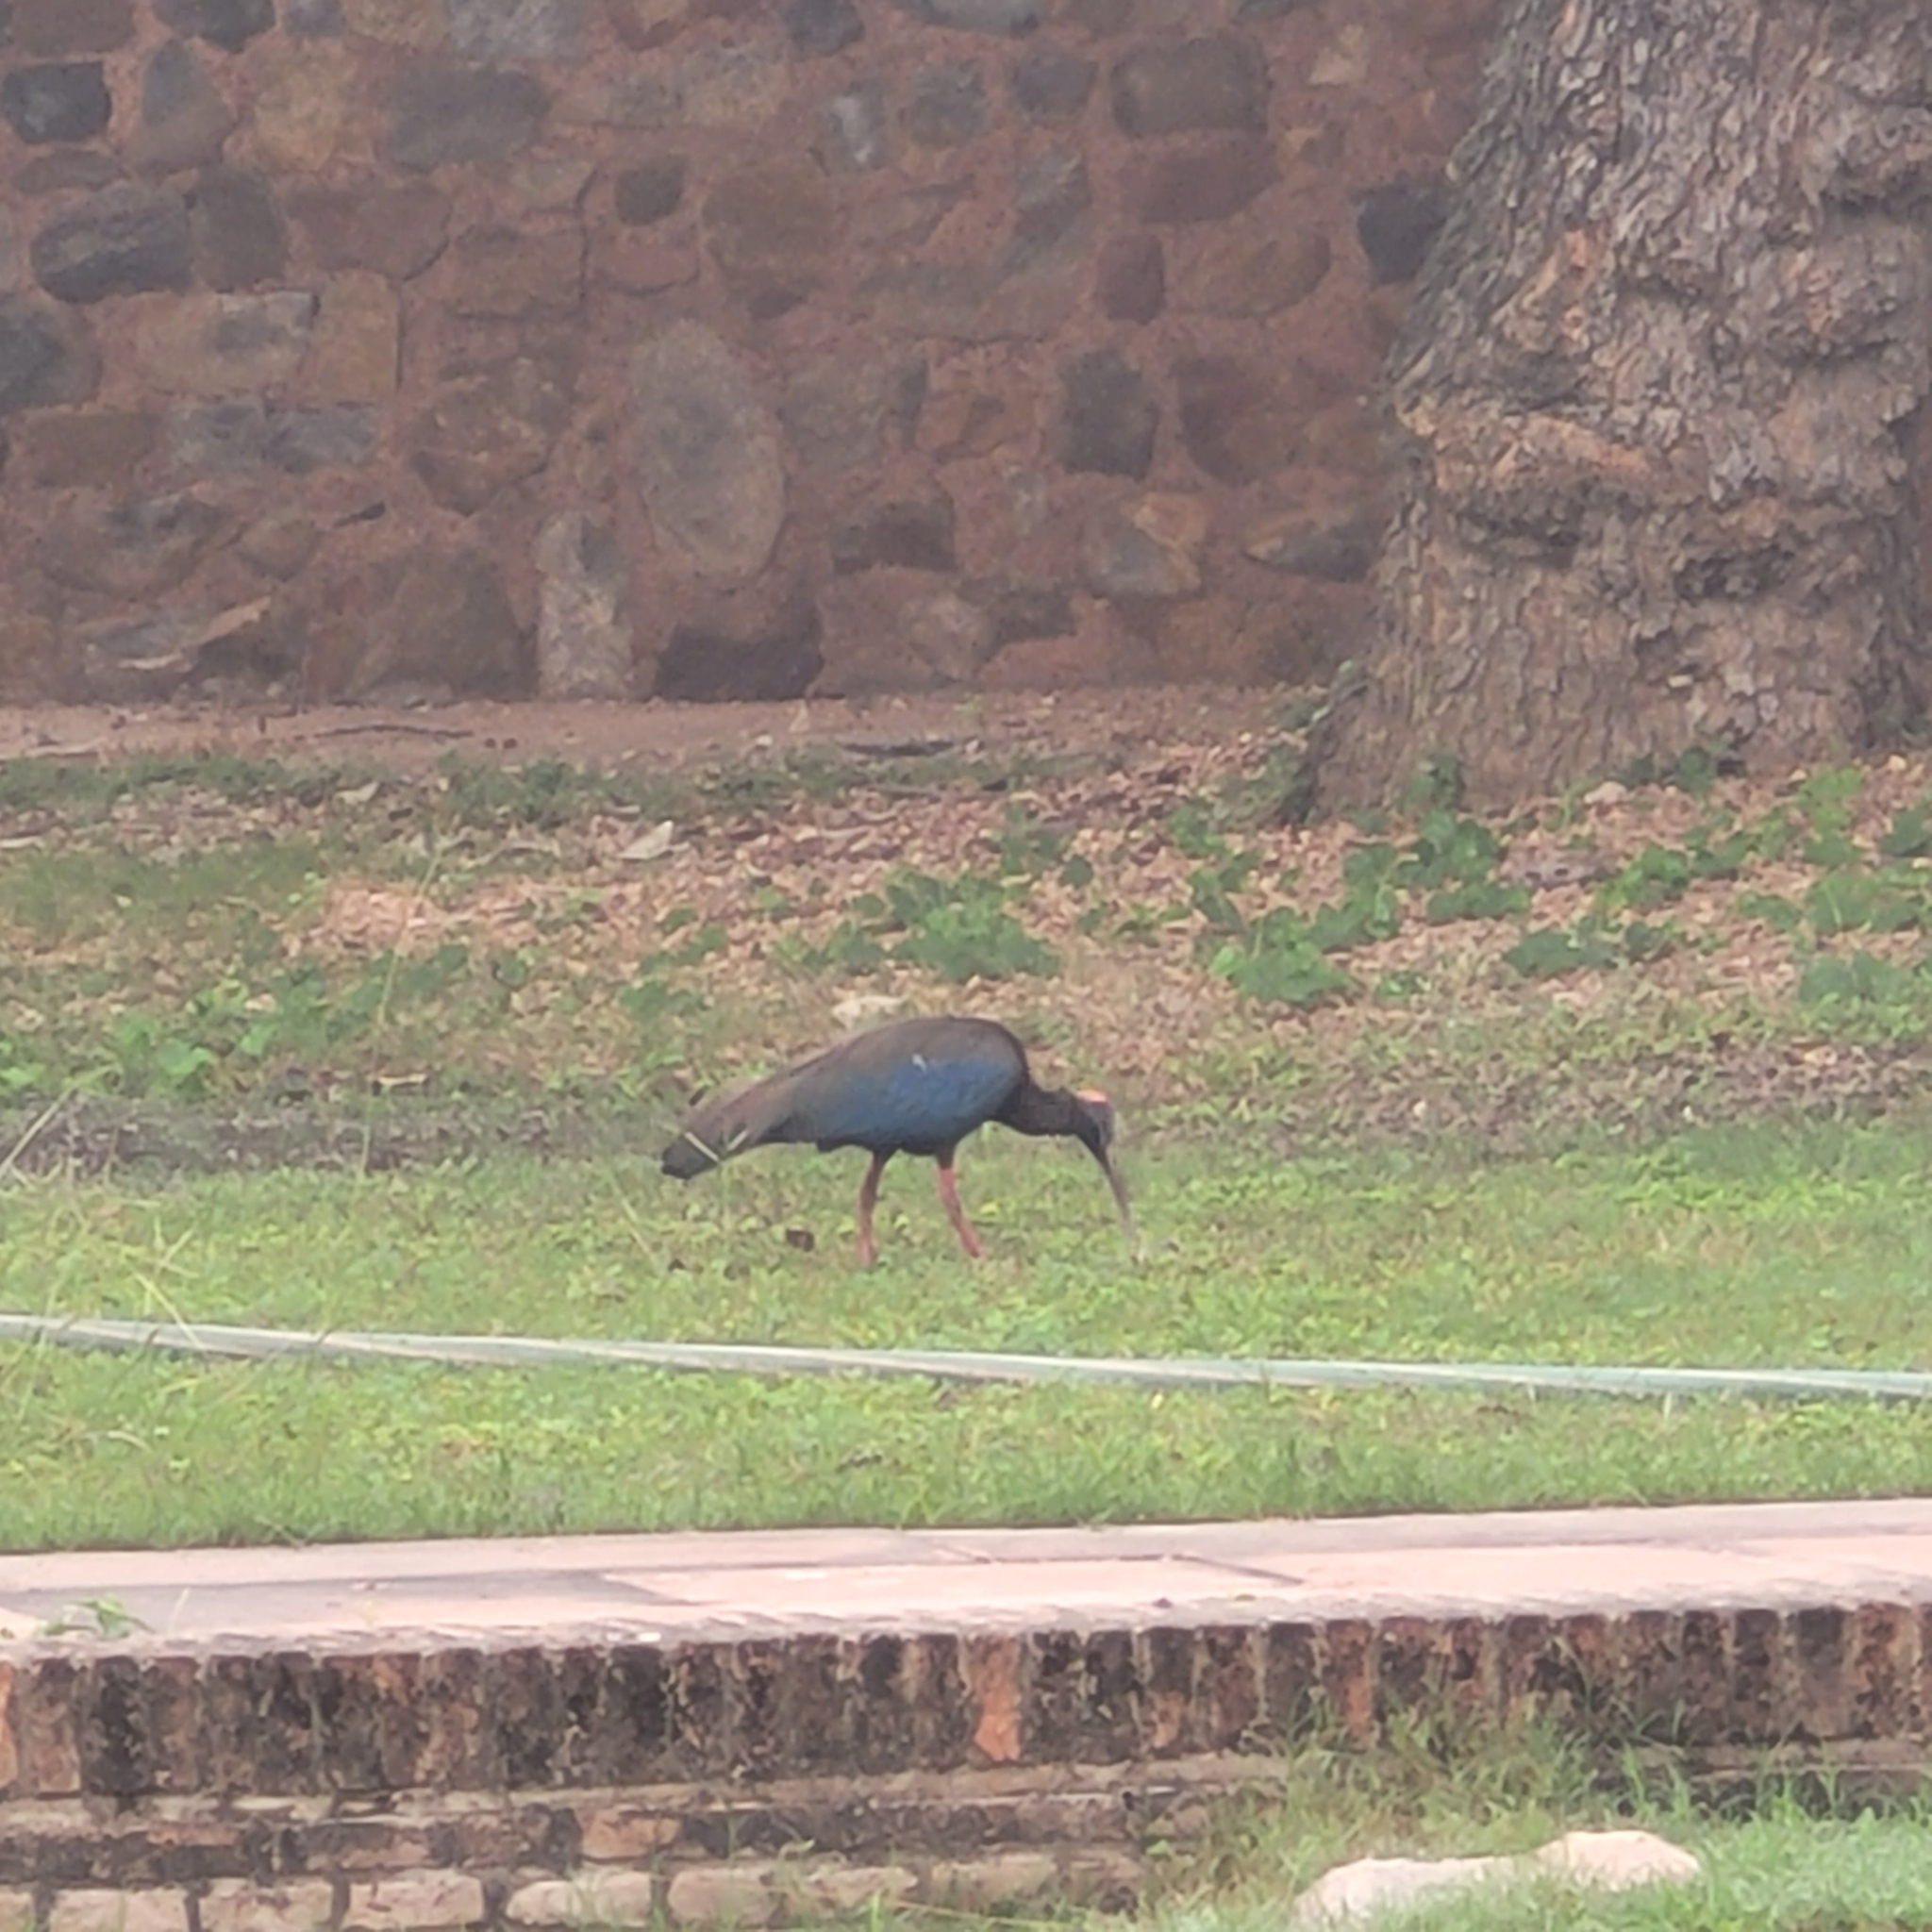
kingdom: Animalia
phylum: Chordata
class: Aves
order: Pelecaniformes
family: Threskiornithidae
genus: Pseudibis
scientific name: Pseudibis papillosa
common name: Red-naped ibis
